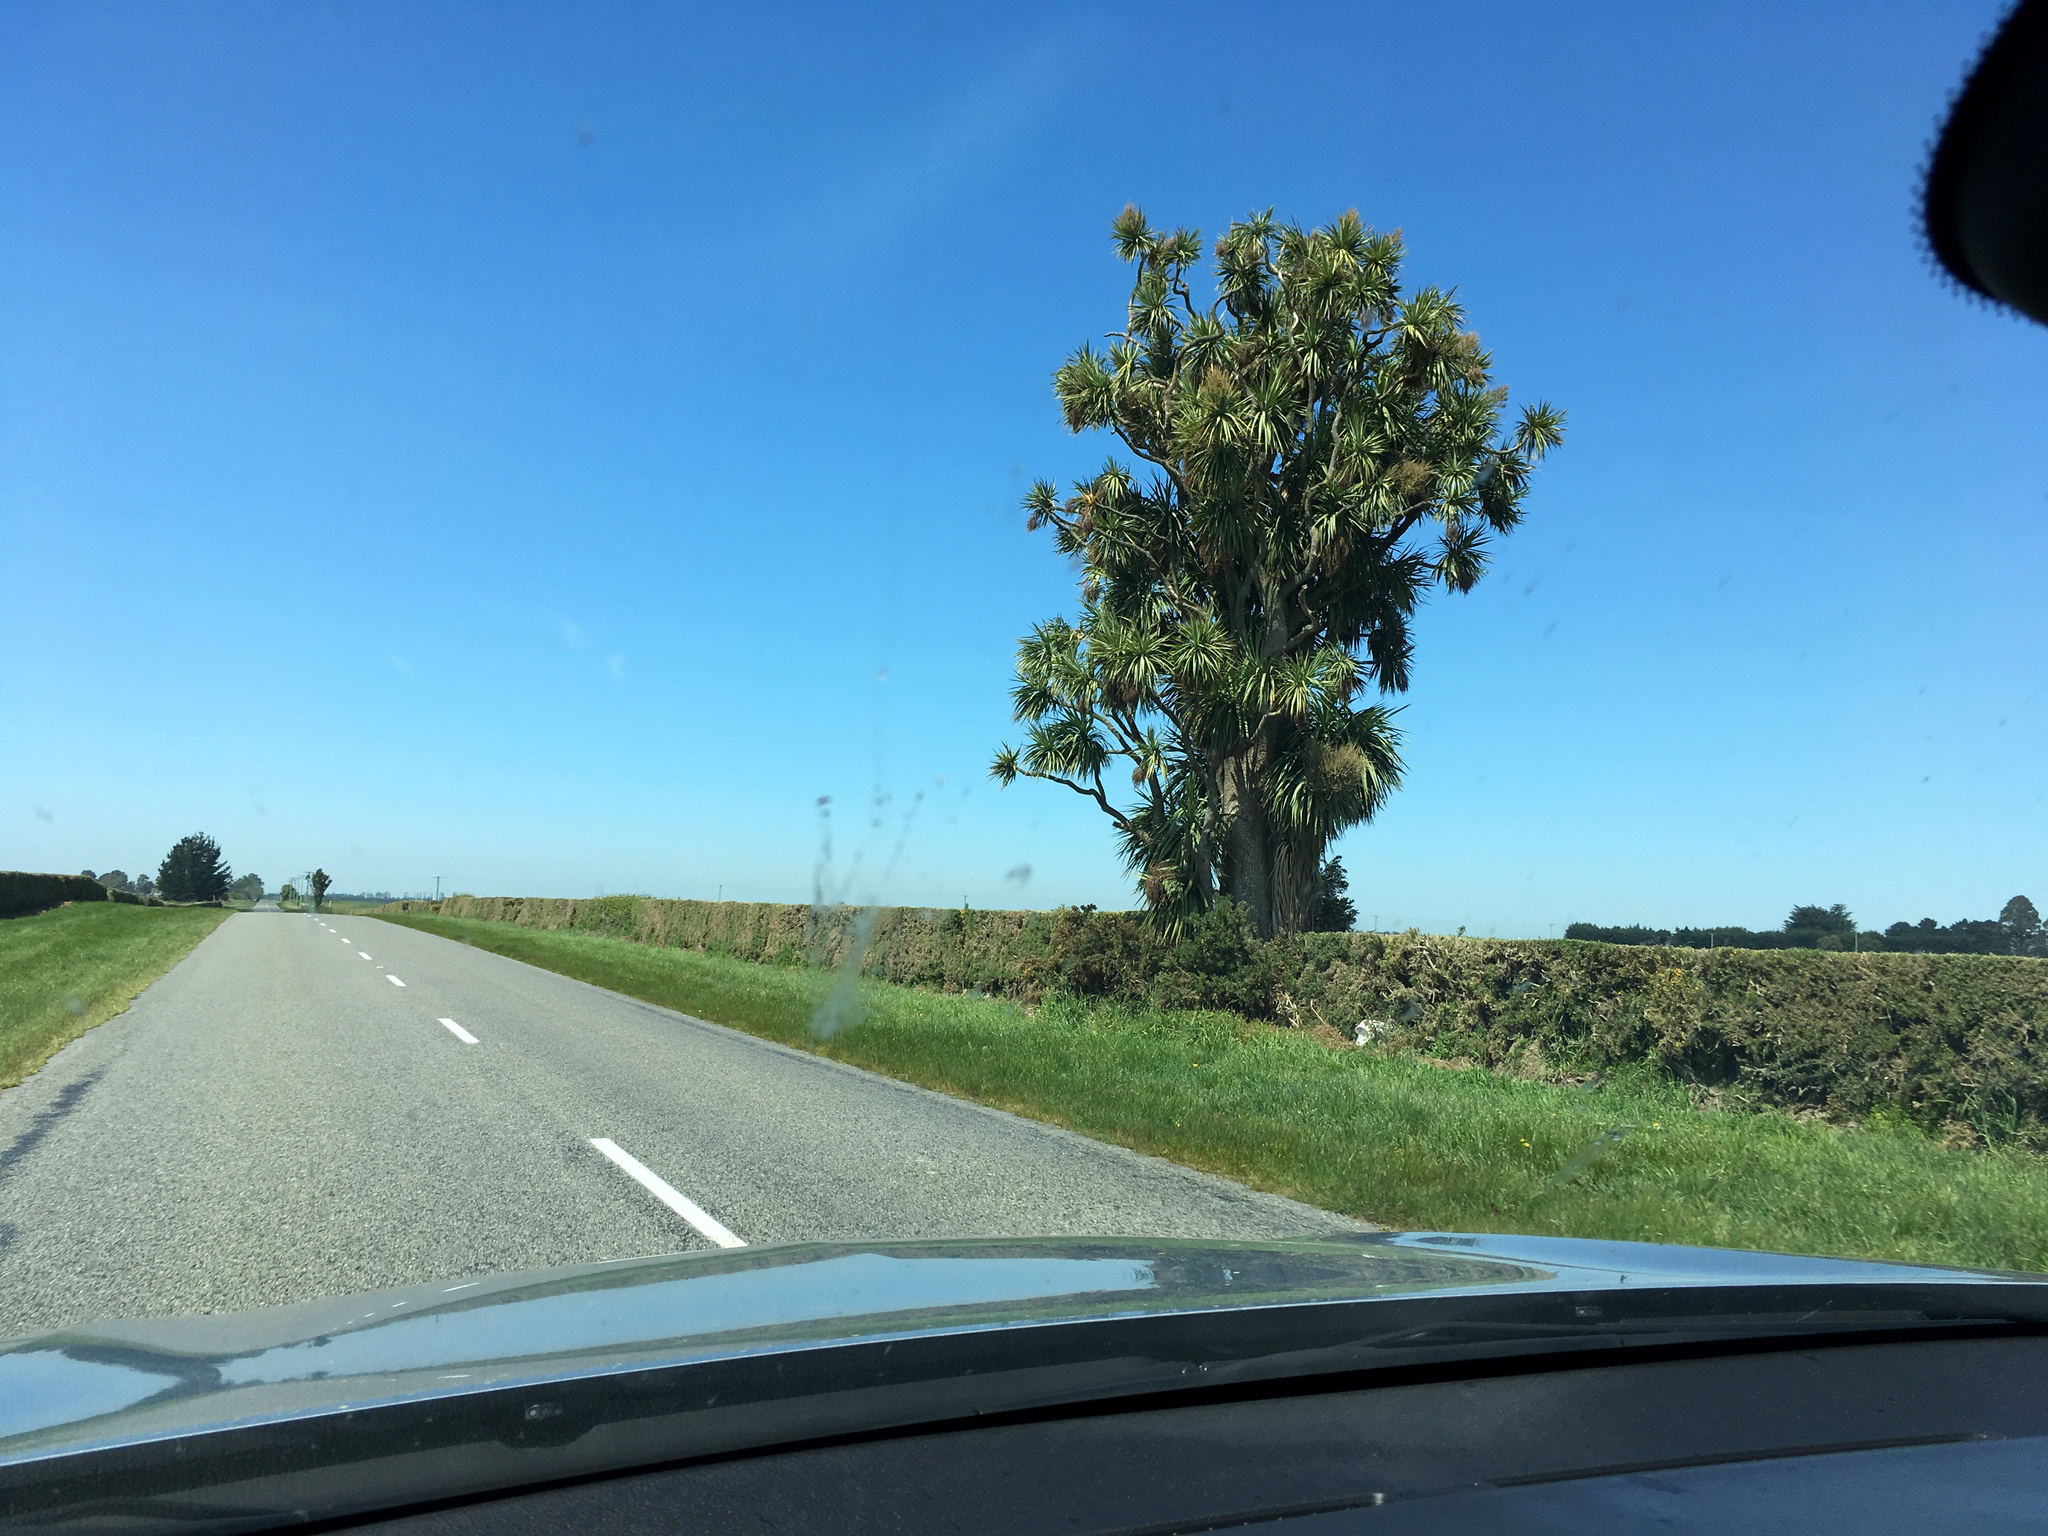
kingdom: Plantae
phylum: Tracheophyta
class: Liliopsida
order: Asparagales
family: Asparagaceae
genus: Cordyline
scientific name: Cordyline australis
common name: Cabbage-palm
